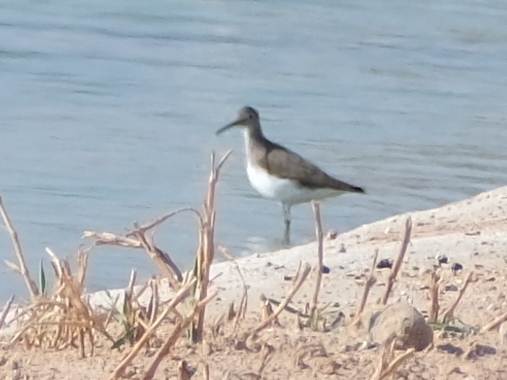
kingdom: Animalia
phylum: Chordata
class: Aves
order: Charadriiformes
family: Scolopacidae
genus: Tringa
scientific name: Tringa ochropus
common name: Green sandpiper
